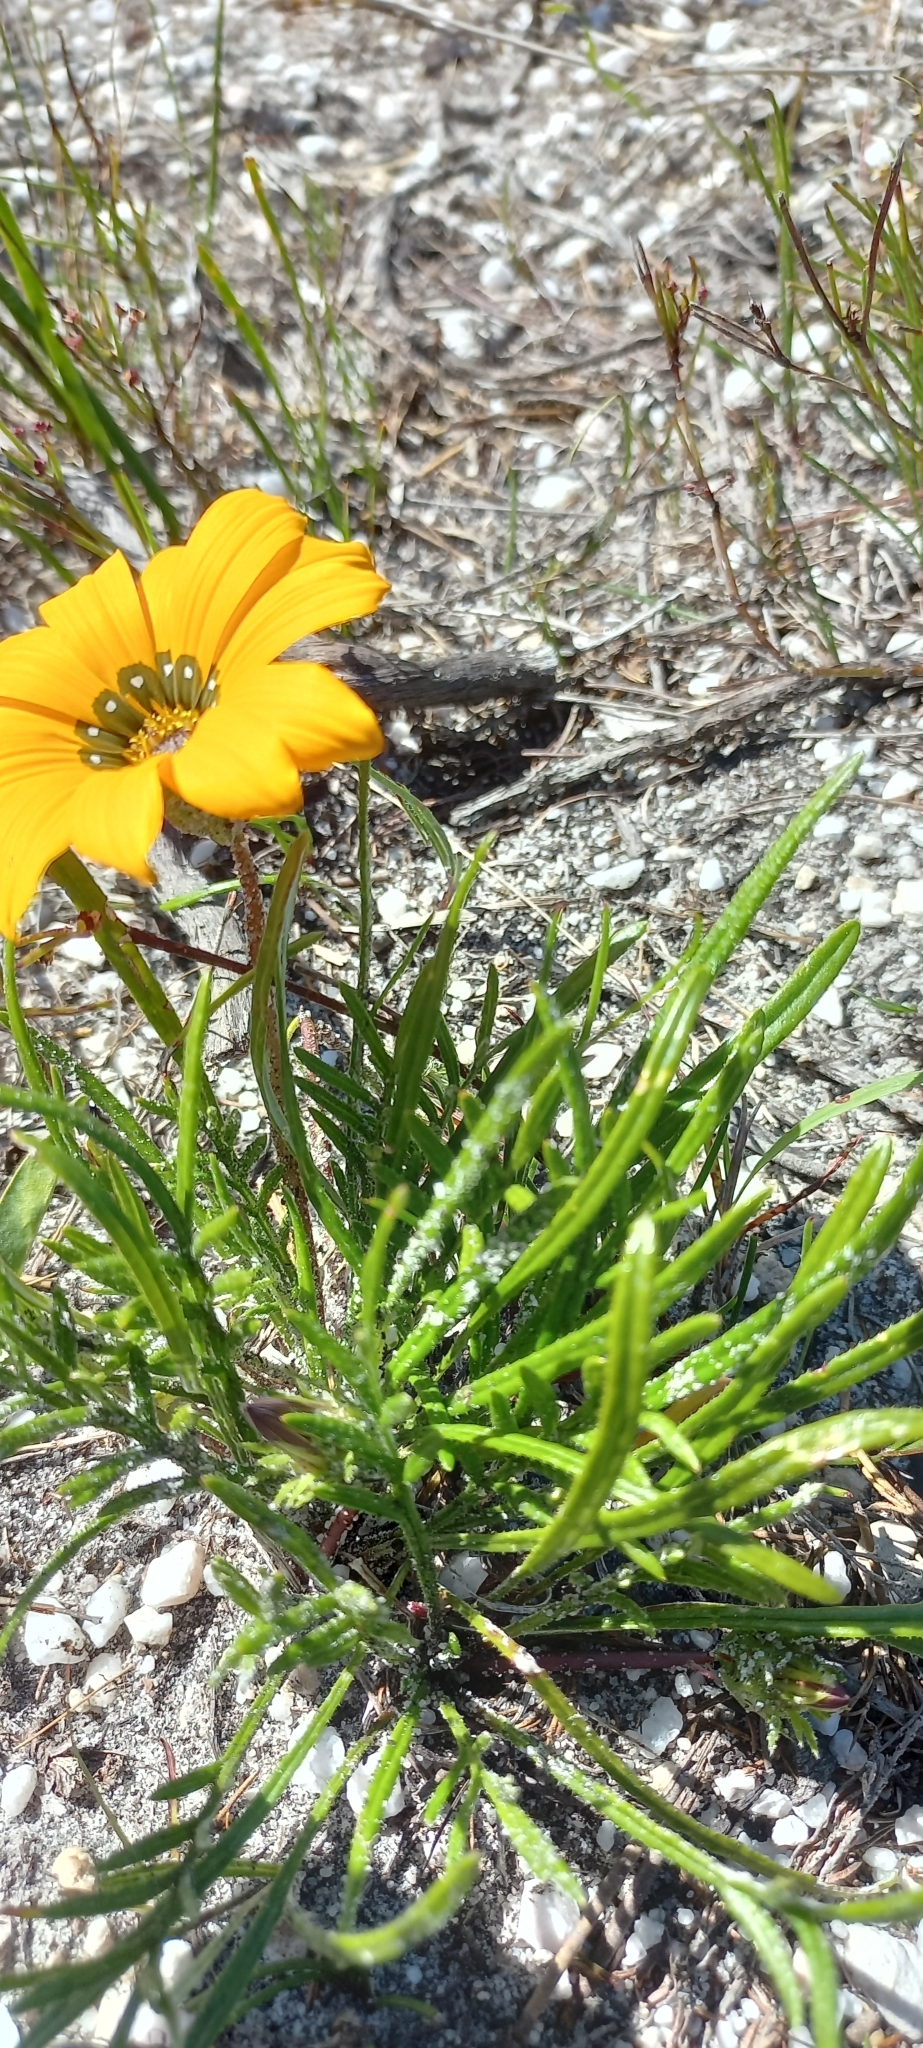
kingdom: Plantae
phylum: Tracheophyta
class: Magnoliopsida
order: Asterales
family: Asteraceae
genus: Gazania
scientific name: Gazania pectinata
